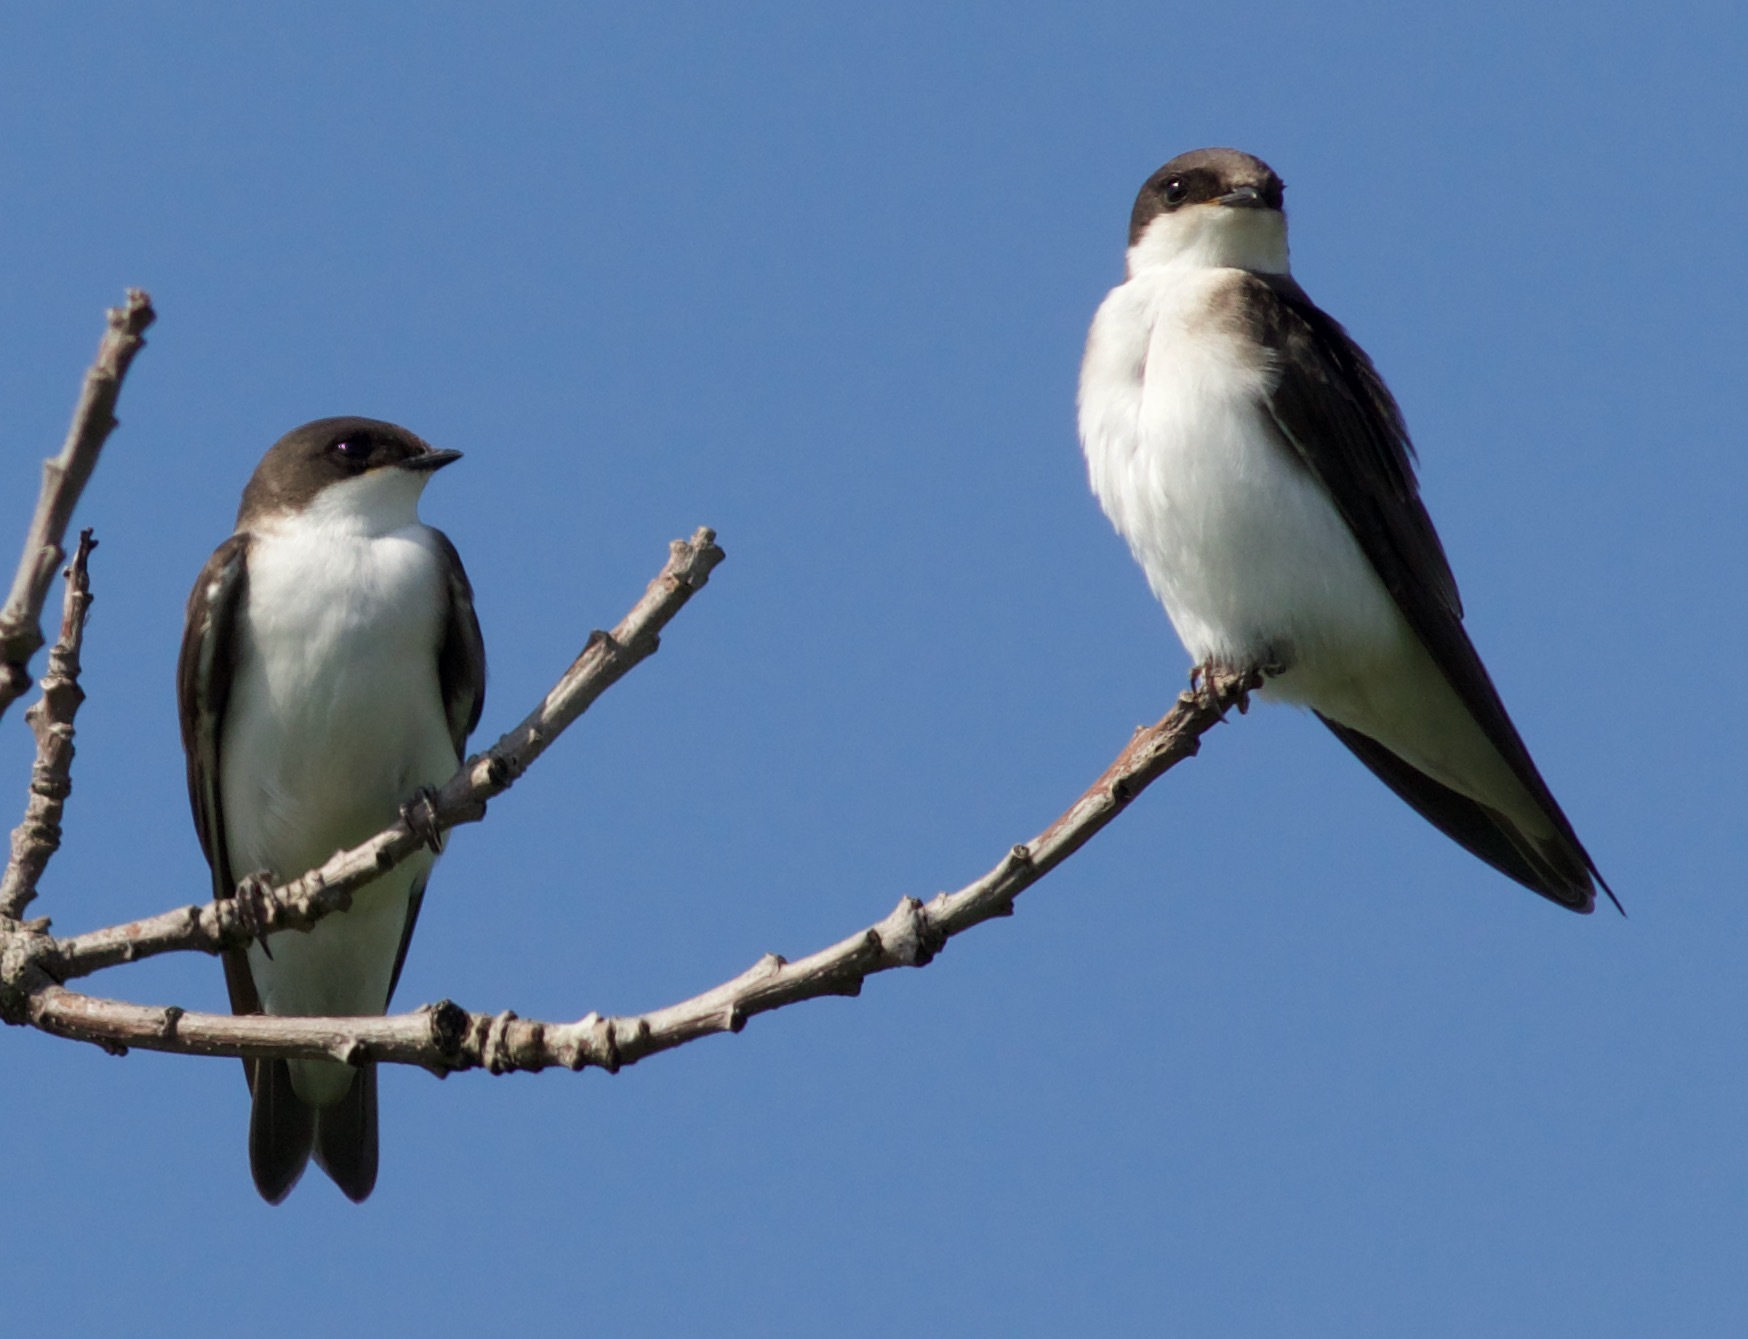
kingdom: Animalia
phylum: Chordata
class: Aves
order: Passeriformes
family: Hirundinidae
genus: Tachycineta
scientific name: Tachycineta bicolor
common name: Tree swallow
